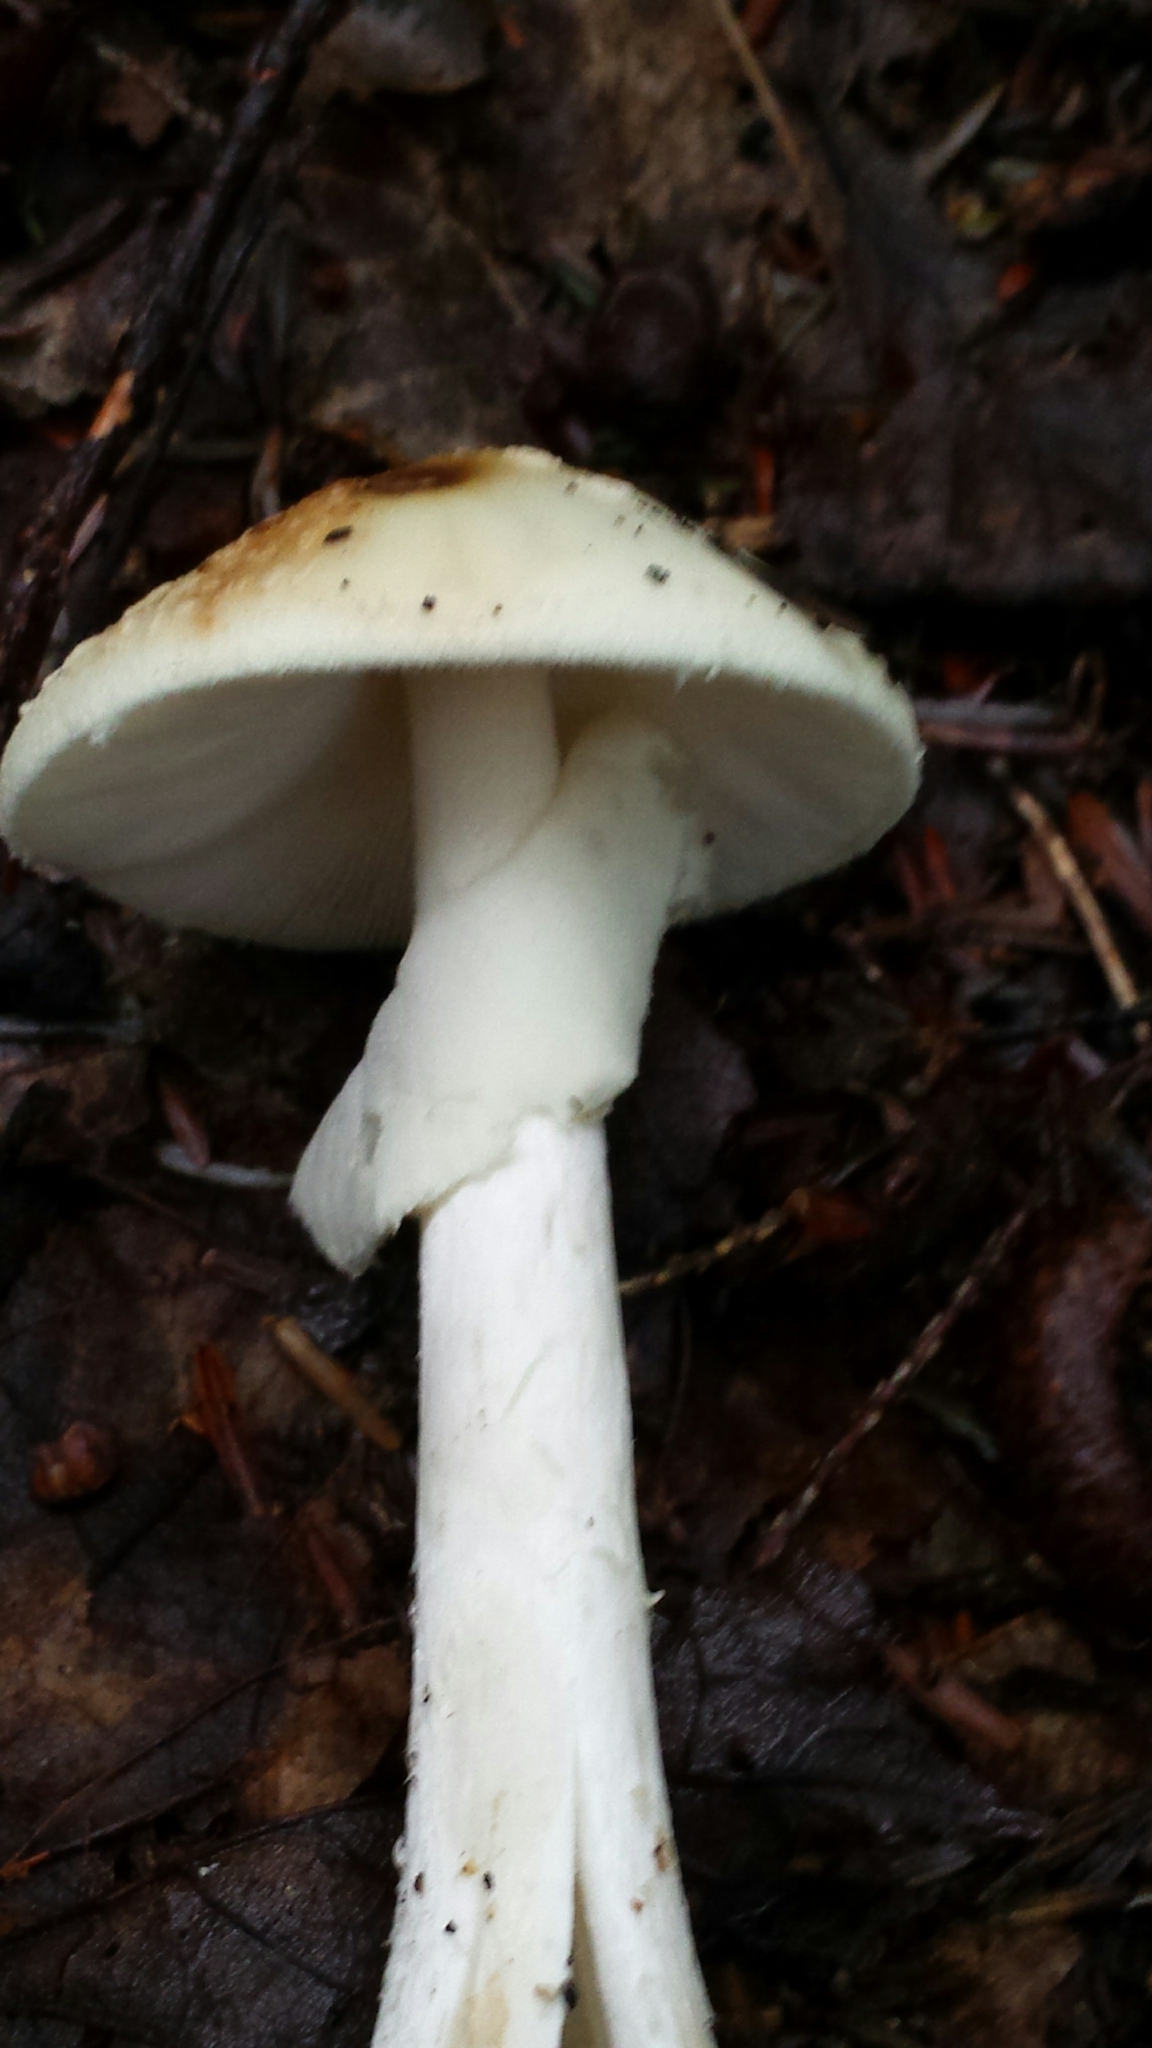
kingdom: Fungi
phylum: Basidiomycota
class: Agaricomycetes
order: Agaricales
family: Amanitaceae
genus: Amanita
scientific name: Amanita bisporigera
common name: Eastern north american destroying angel
